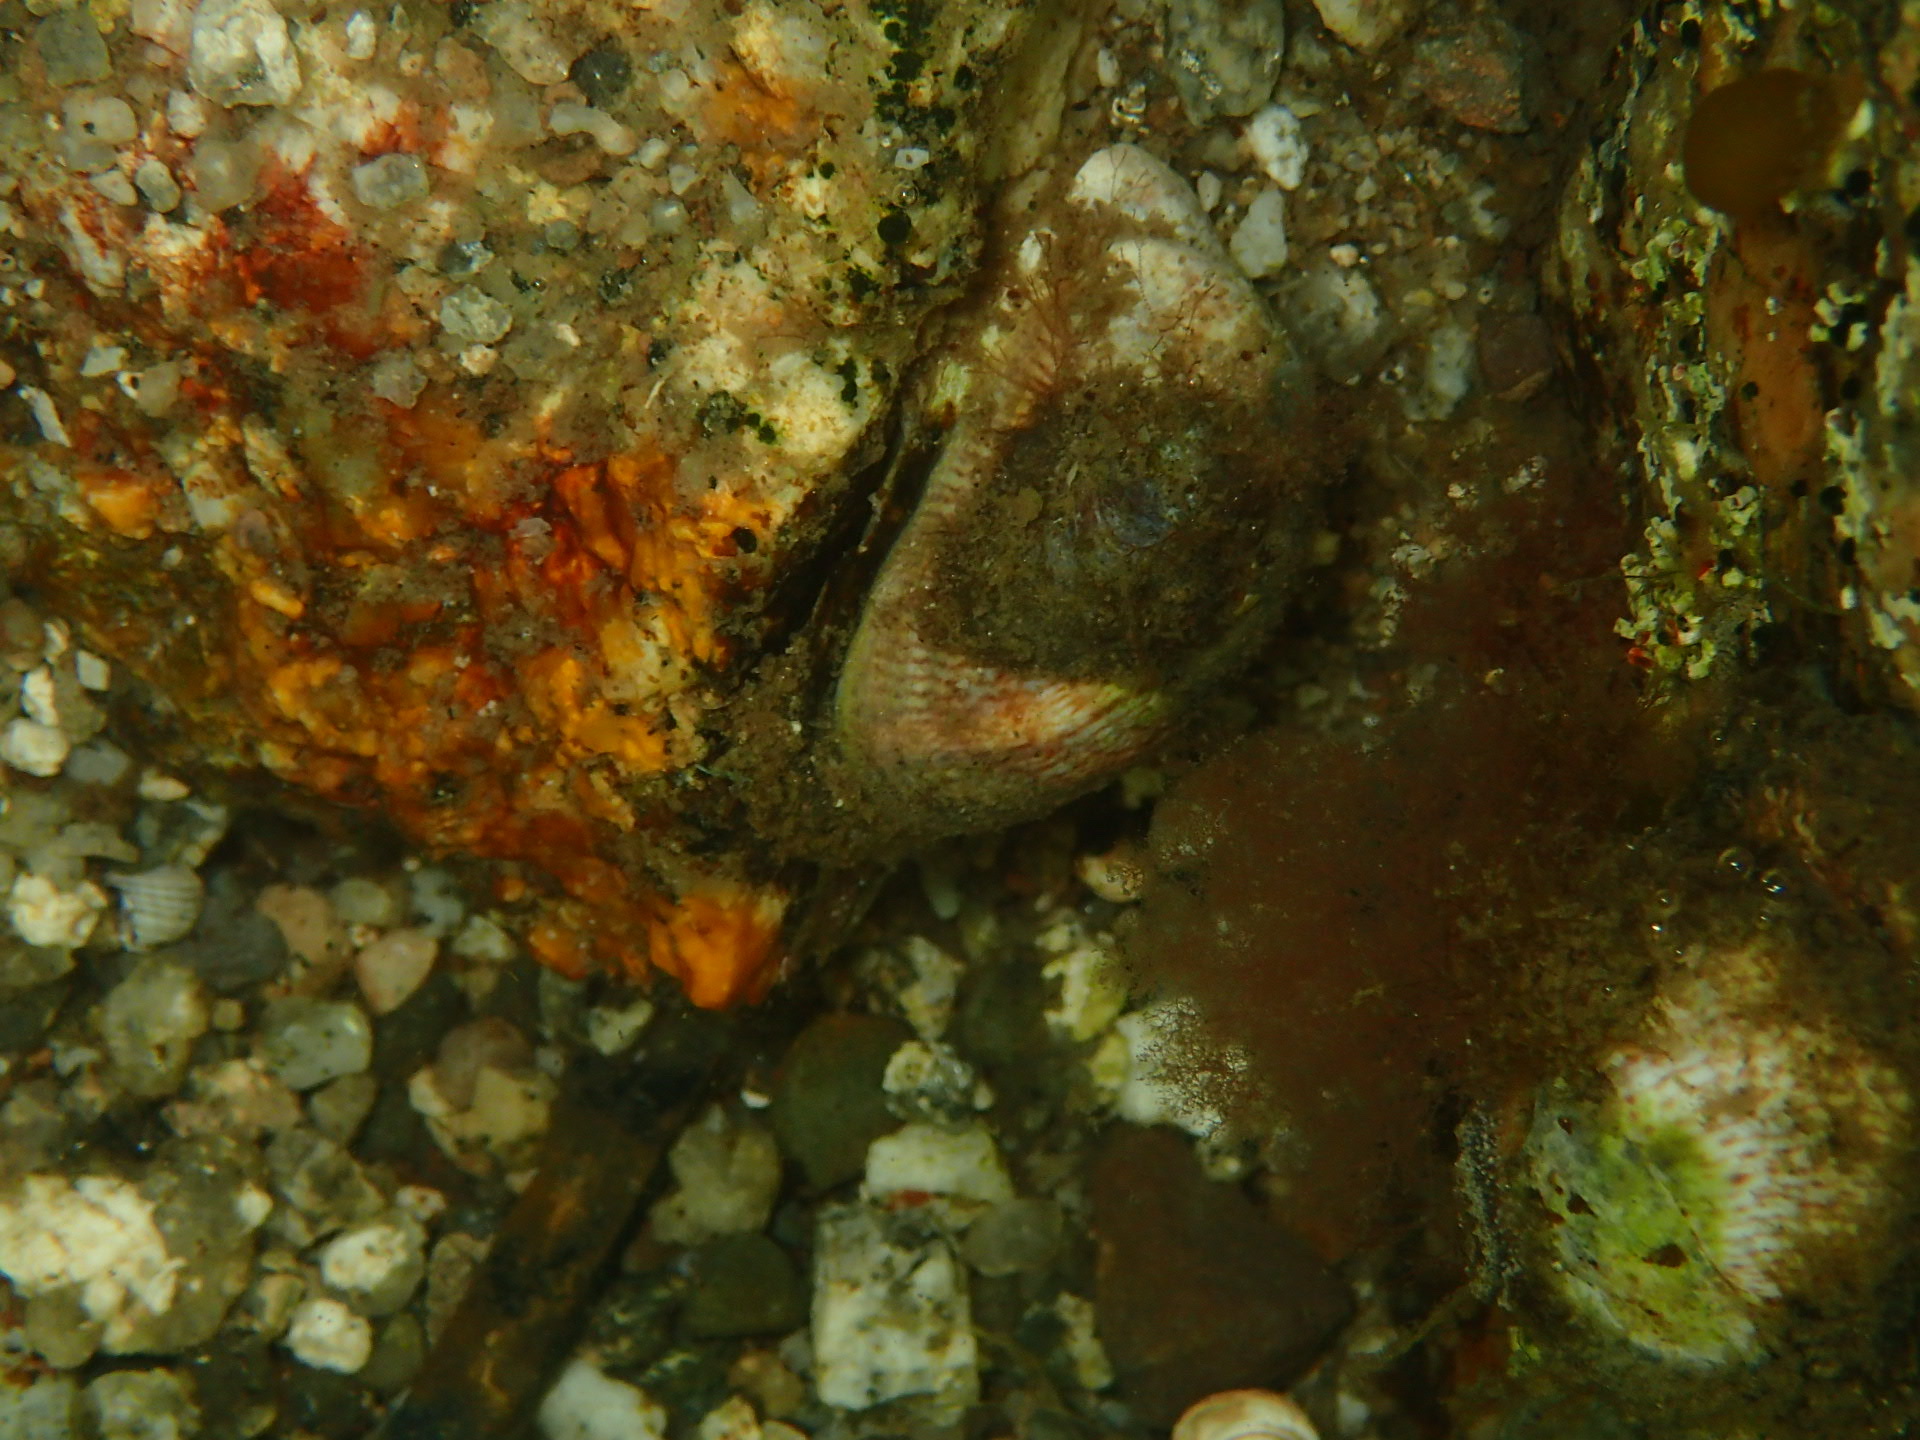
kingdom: Animalia
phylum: Mollusca
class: Gastropoda
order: Littorinimorpha
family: Calyptraeidae
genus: Crepidula
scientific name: Crepidula fornicata
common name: Slipper limpet
